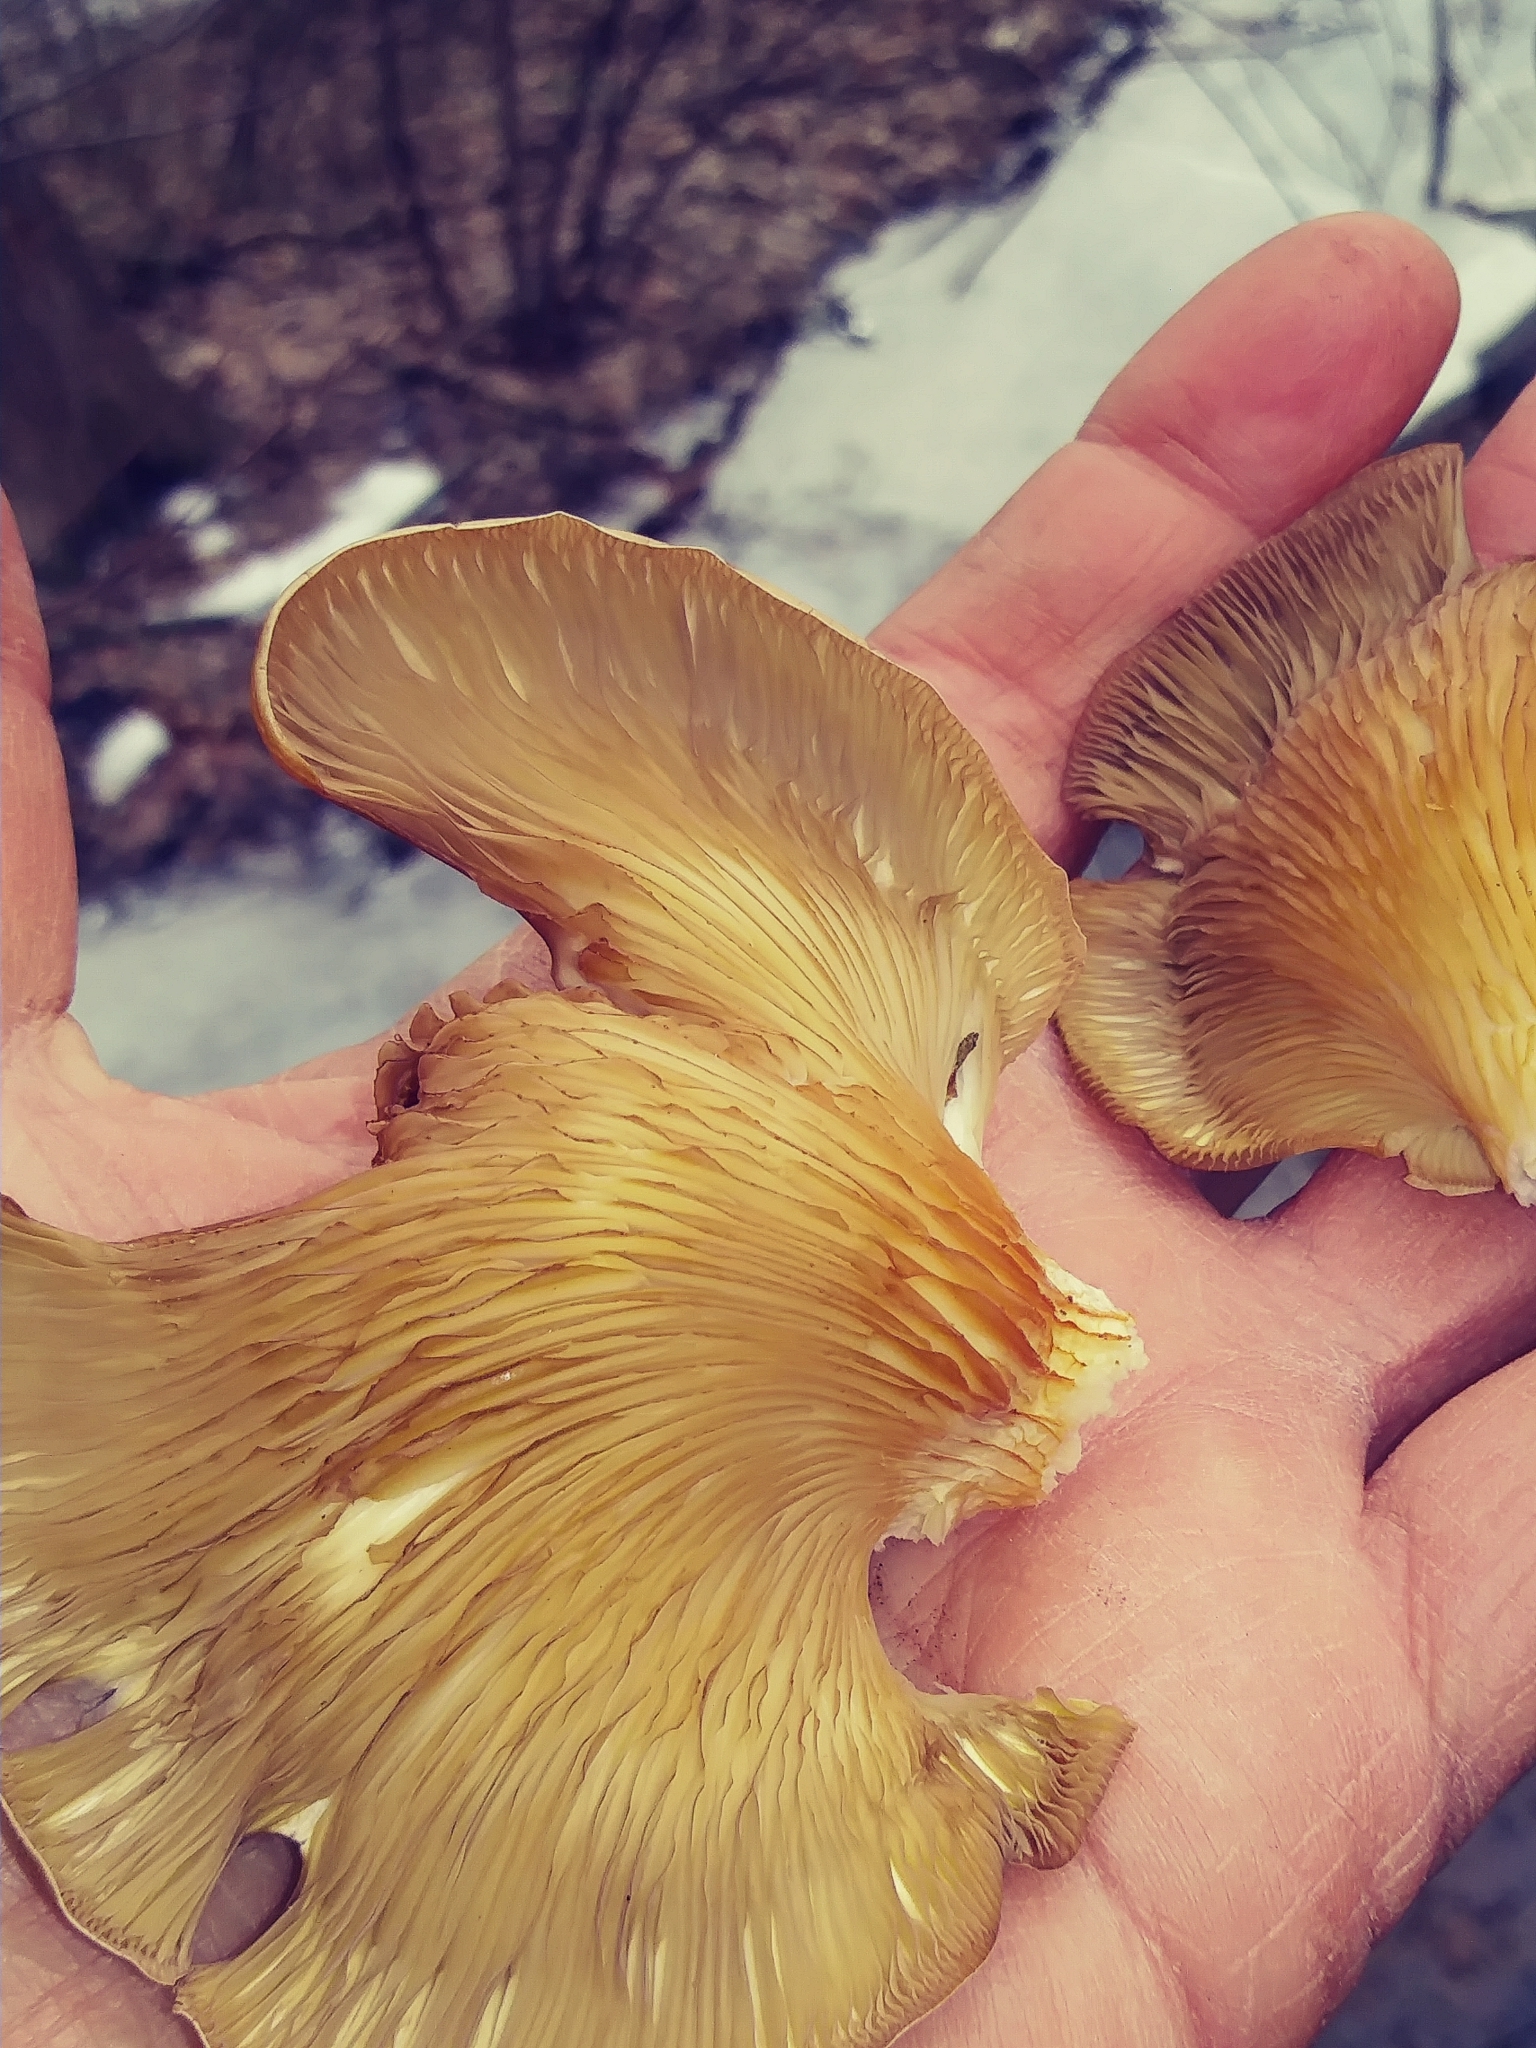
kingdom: Fungi
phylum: Basidiomycota
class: Agaricomycetes
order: Agaricales
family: Pleurotaceae
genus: Pleurotus
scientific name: Pleurotus ostreatus
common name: Oyster mushroom
